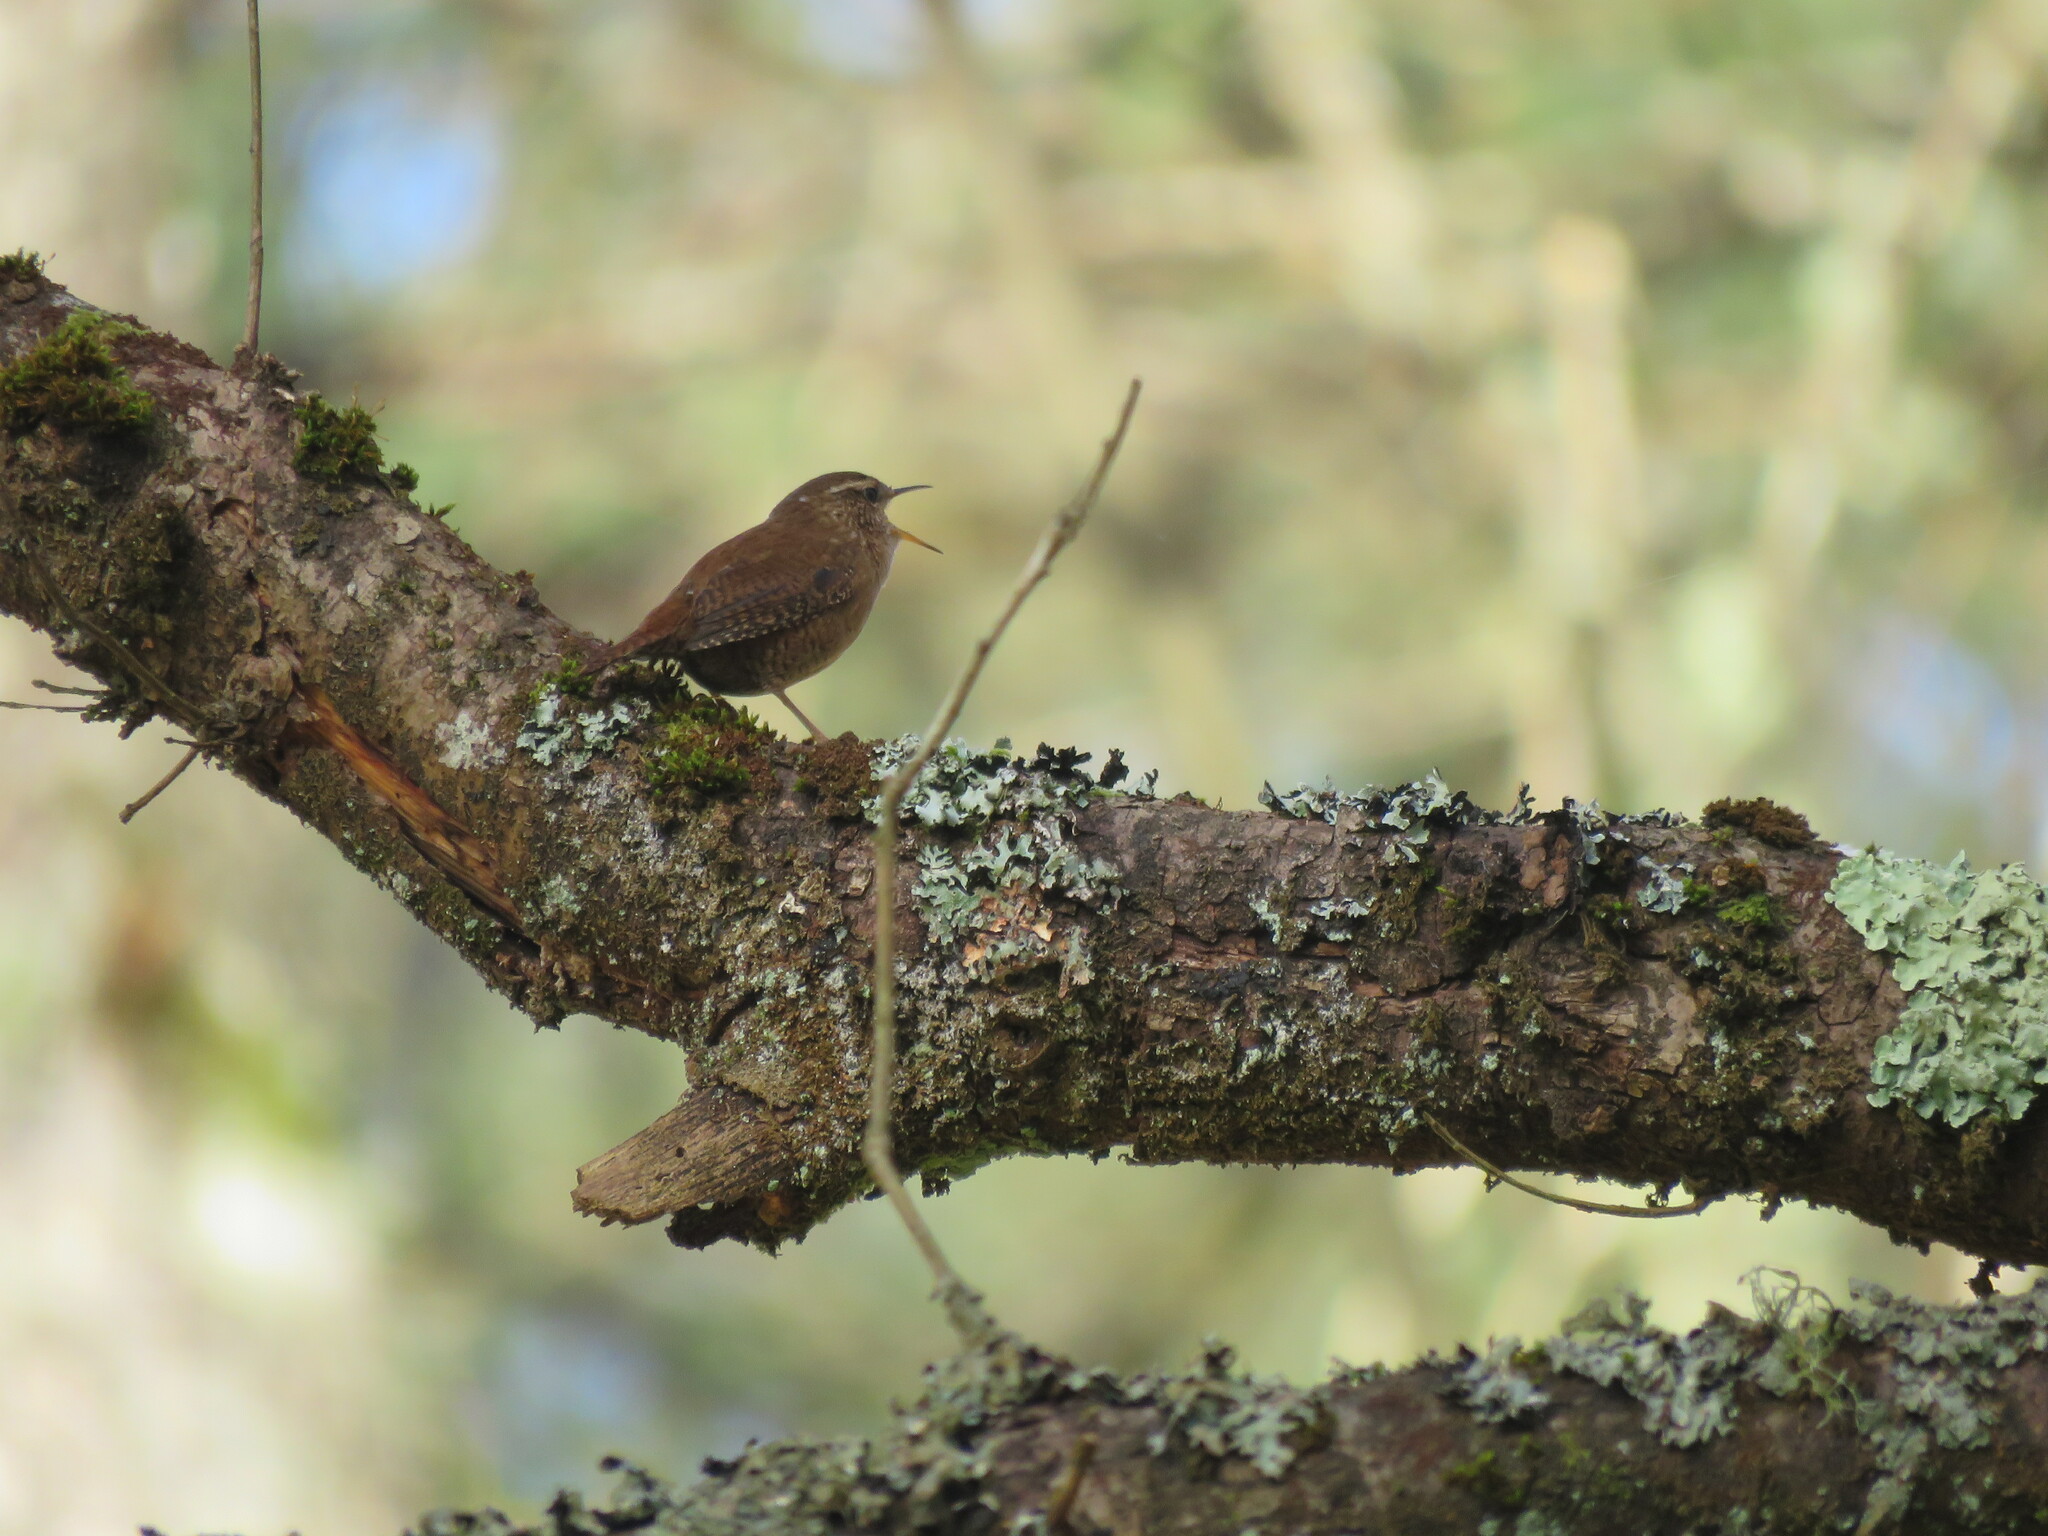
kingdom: Animalia
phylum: Chordata
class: Aves
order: Passeriformes
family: Troglodytidae
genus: Troglodytes
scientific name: Troglodytes troglodytes
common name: Eurasian wren
